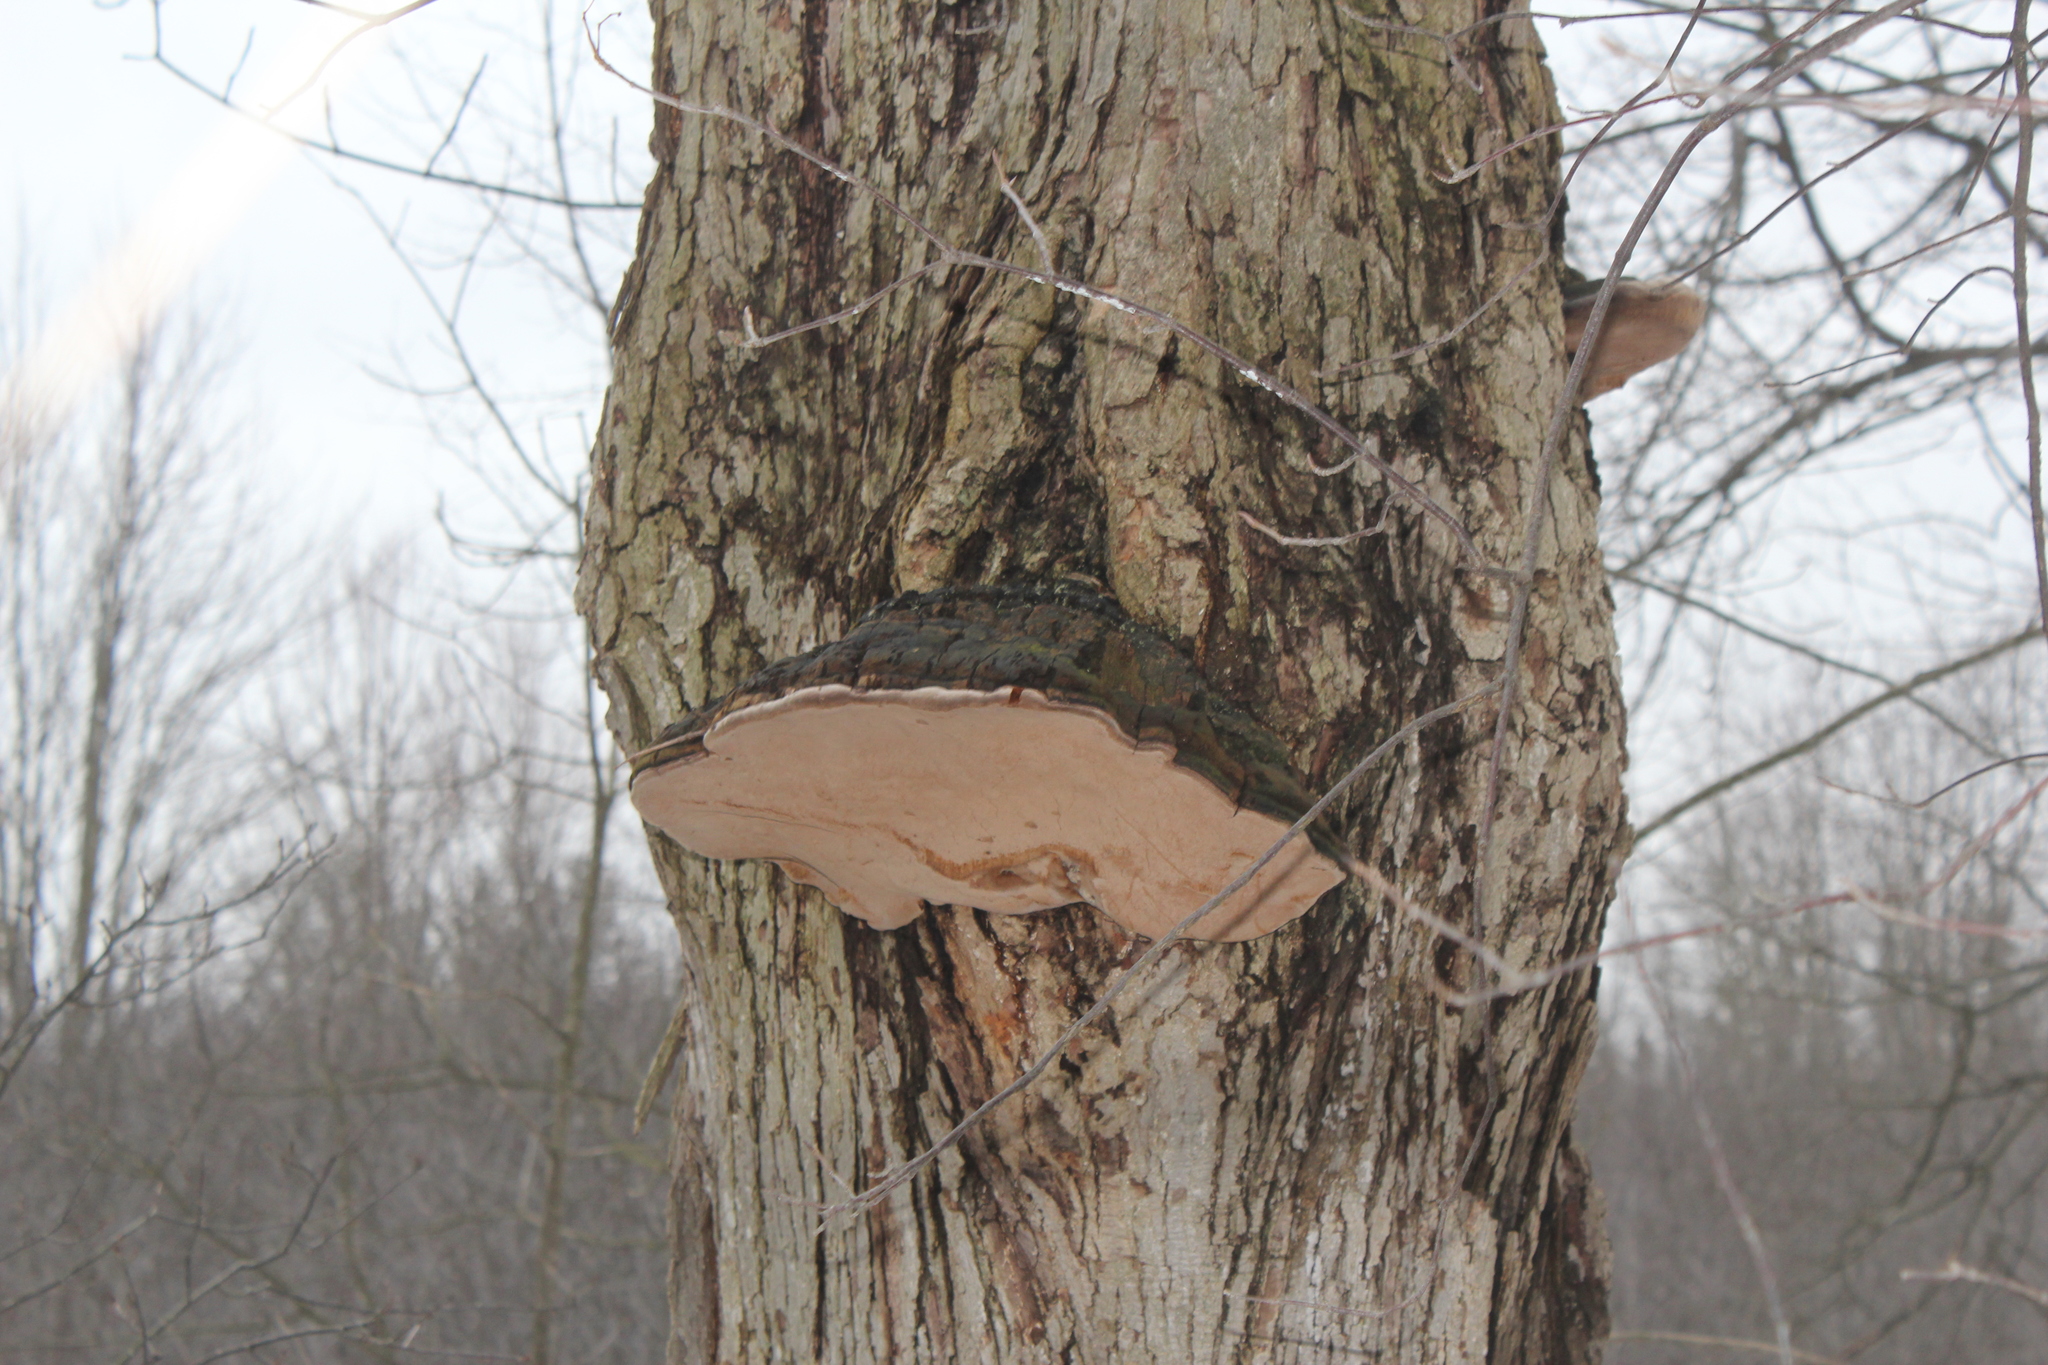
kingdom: Fungi
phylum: Basidiomycota
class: Agaricomycetes
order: Hymenochaetales
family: Hymenochaetaceae
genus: Phellinus
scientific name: Phellinus robiniae
